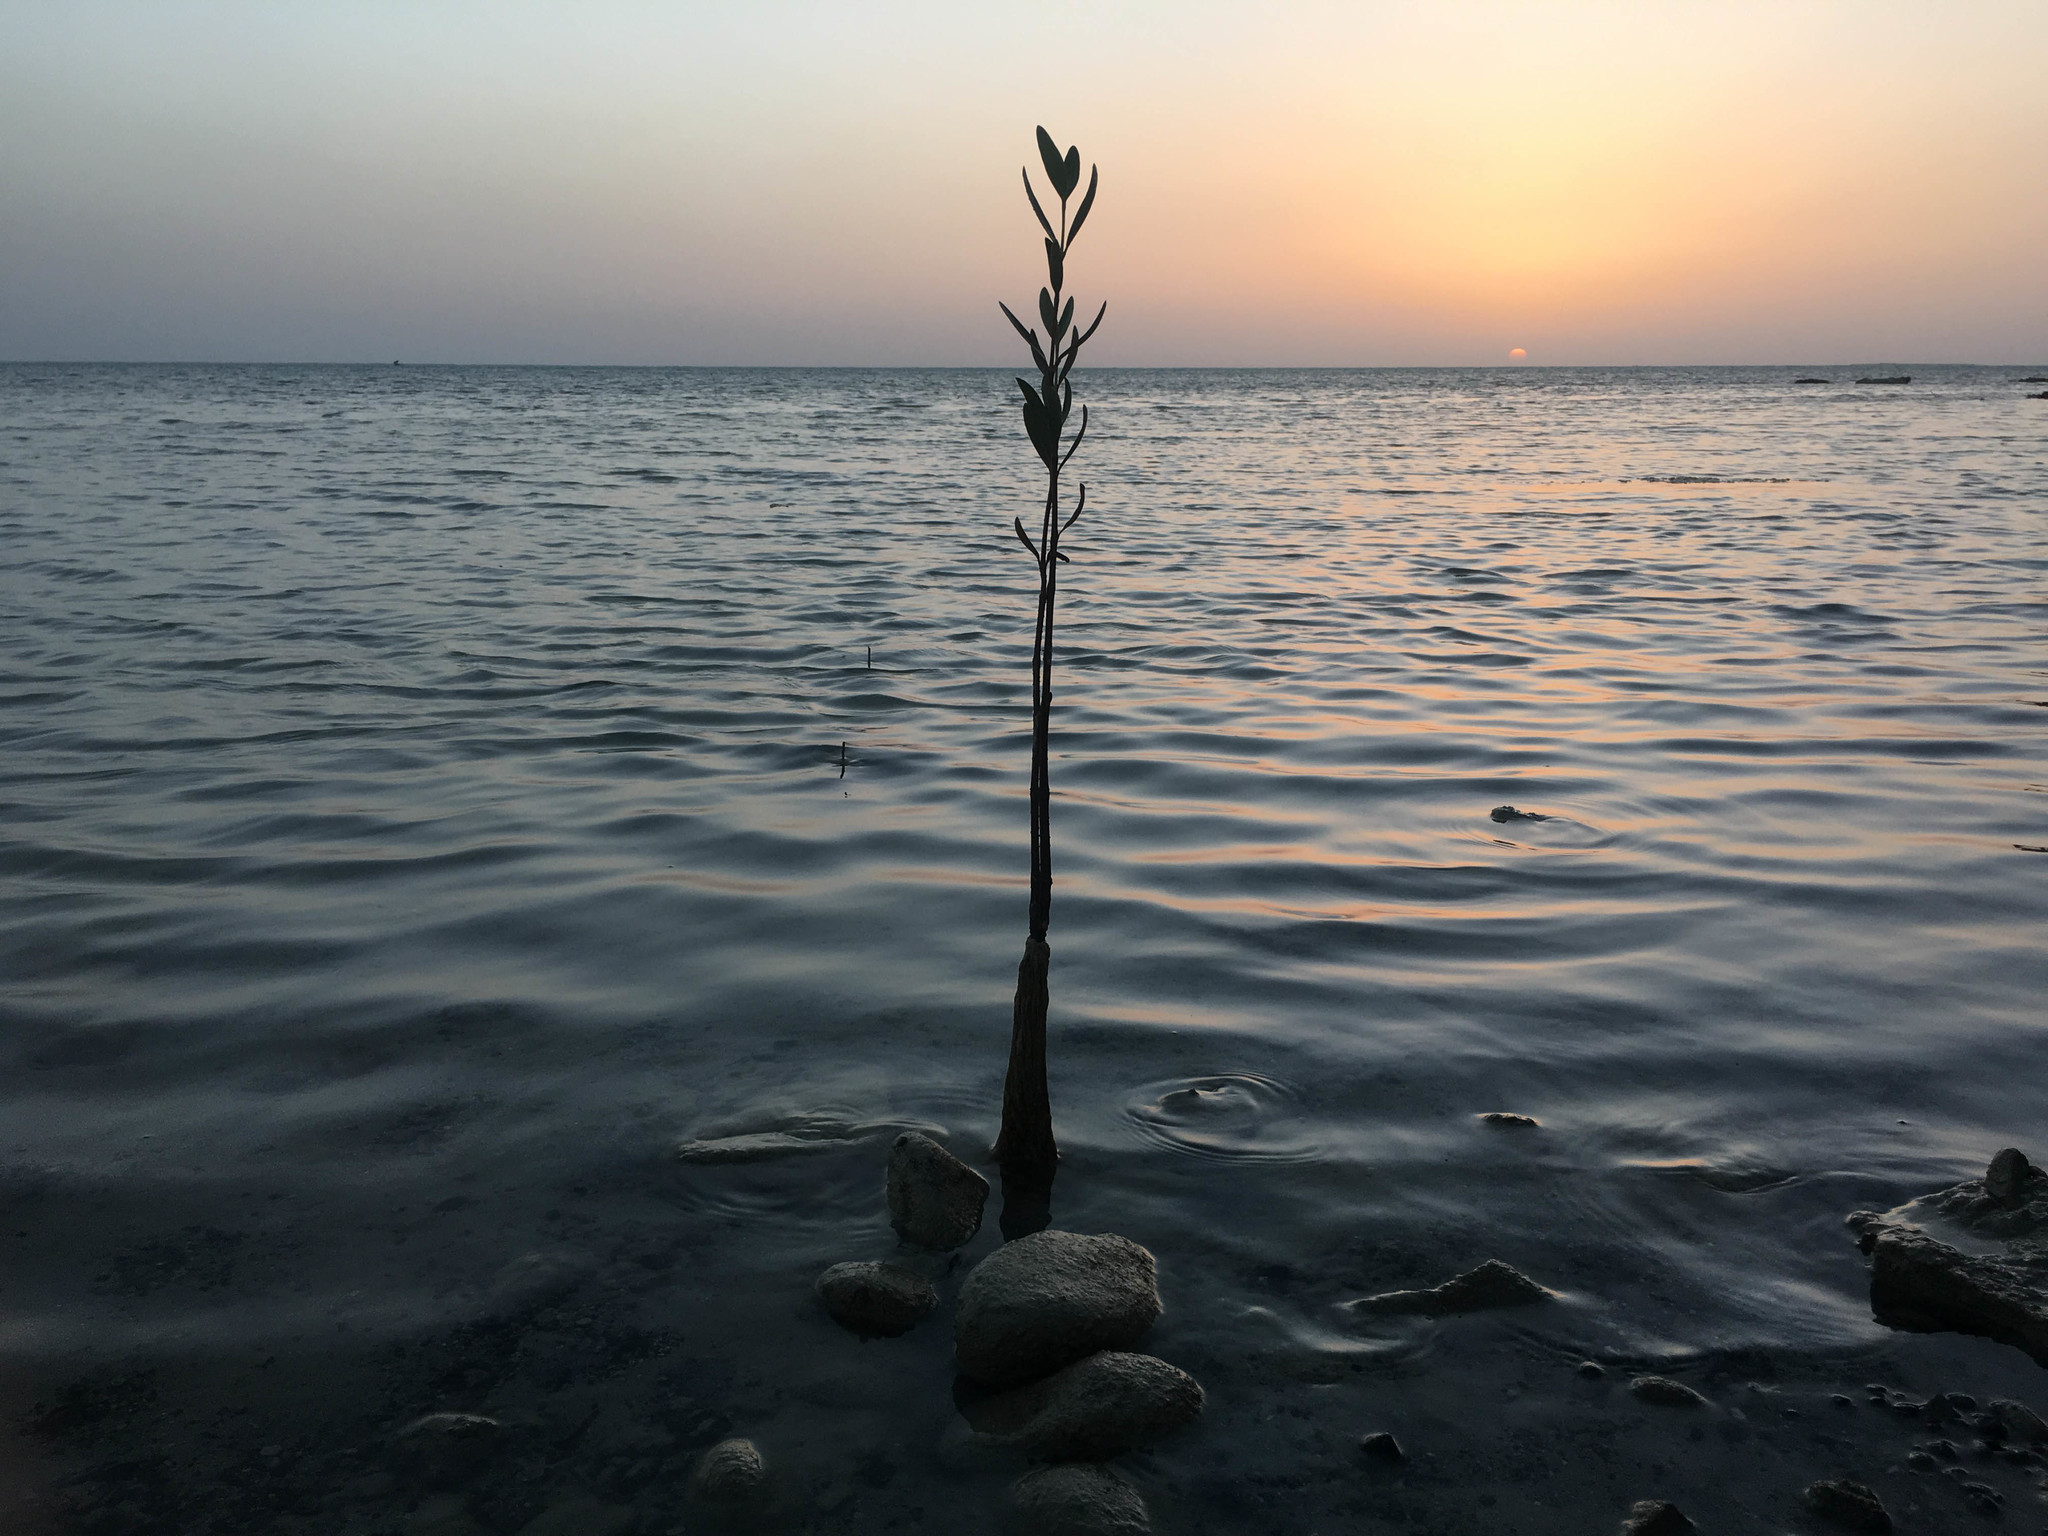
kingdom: Plantae
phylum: Tracheophyta
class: Magnoliopsida
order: Lamiales
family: Acanthaceae
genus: Avicennia
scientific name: Avicennia marina
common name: Gray mangrove
